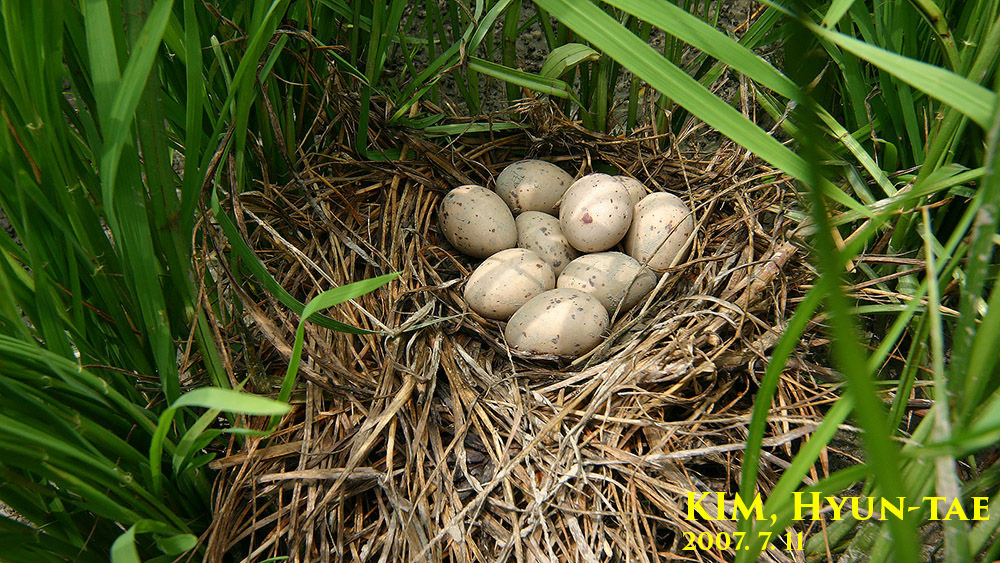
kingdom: Animalia
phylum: Chordata
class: Aves
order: Gruiformes
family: Rallidae
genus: Gallinula
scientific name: Gallinula chloropus
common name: Common moorhen
